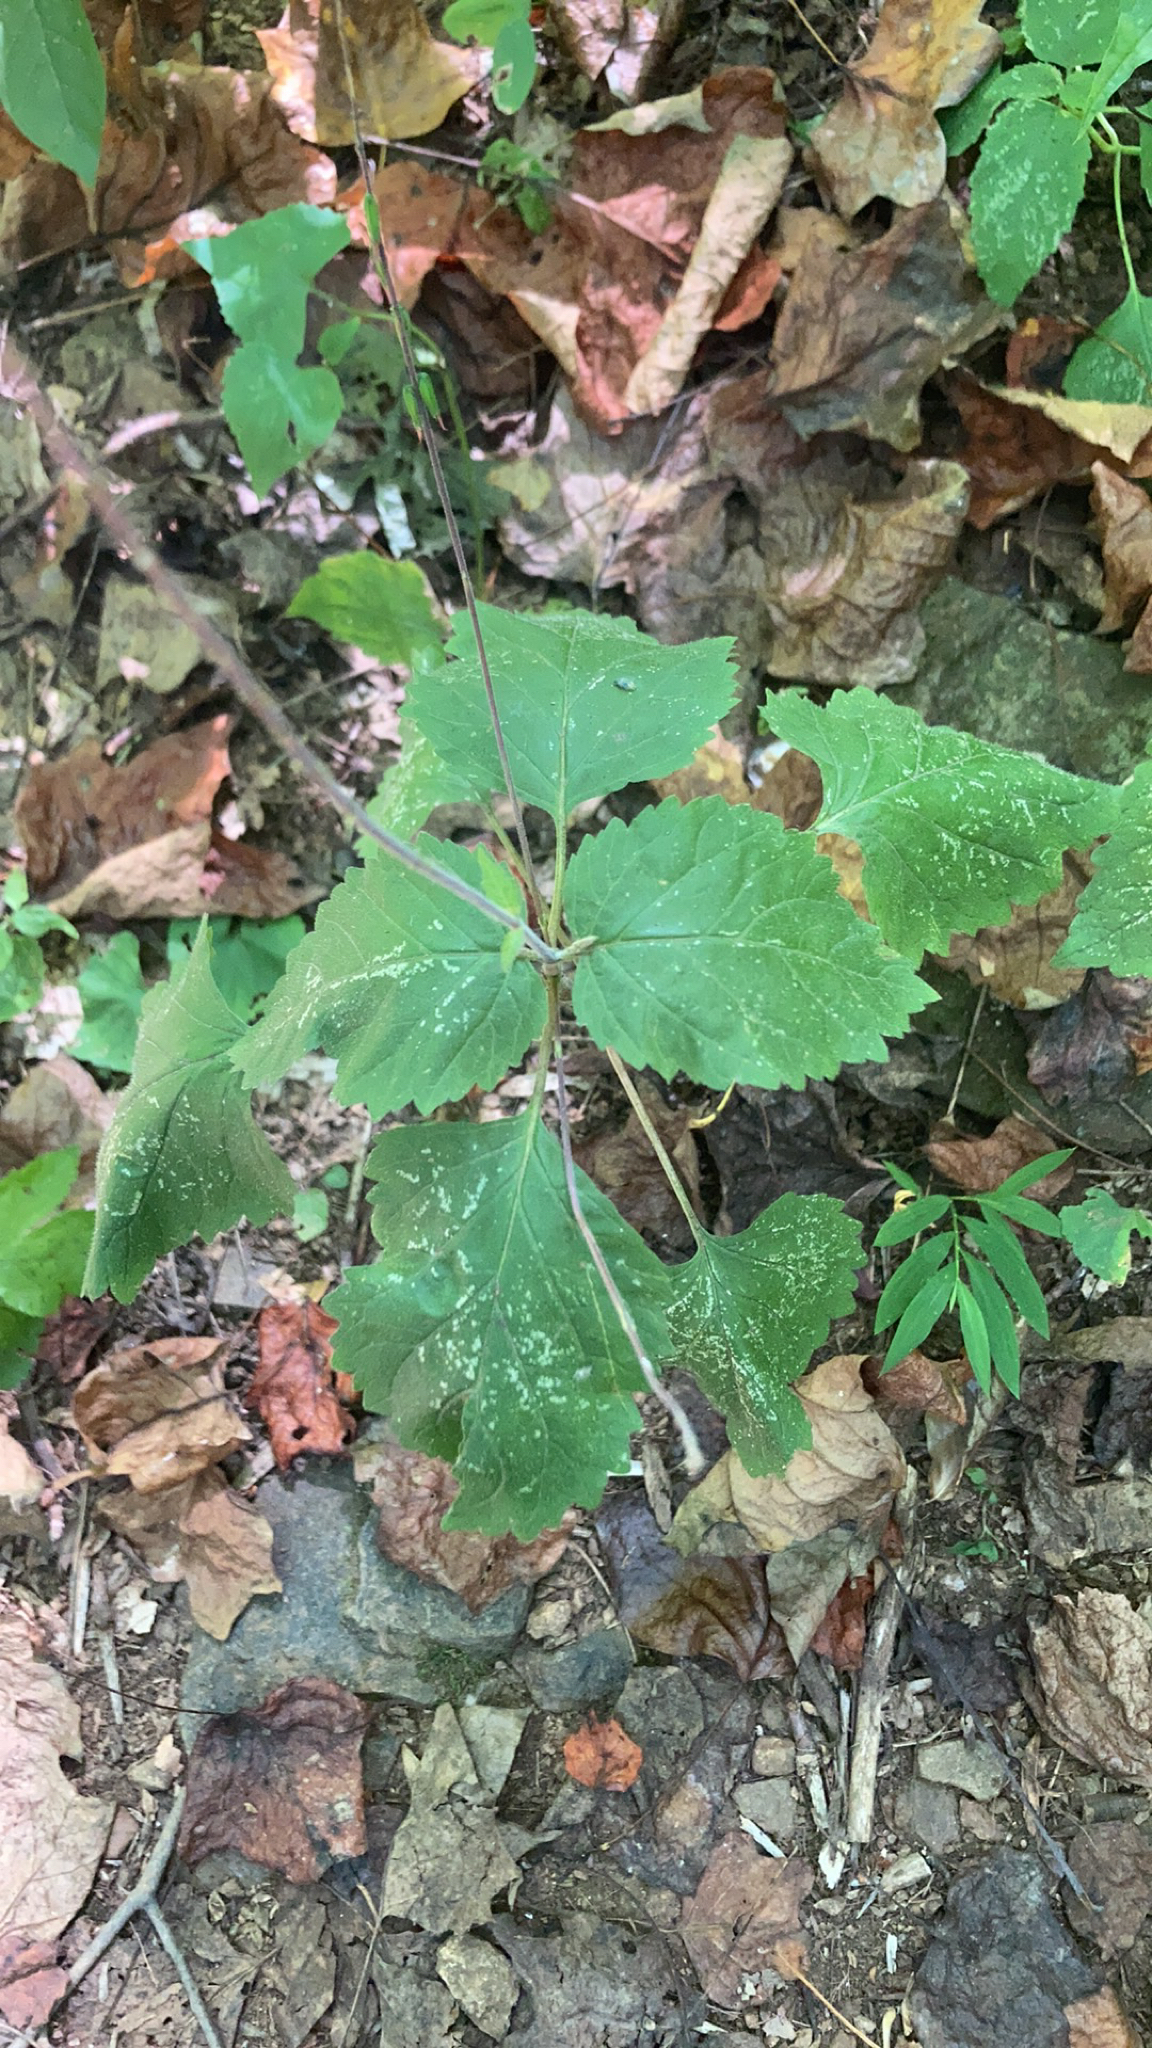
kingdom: Plantae
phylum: Tracheophyta
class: Magnoliopsida
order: Lamiales
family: Phrymaceae
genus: Phryma
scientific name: Phryma leptostachya
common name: American lopseed
